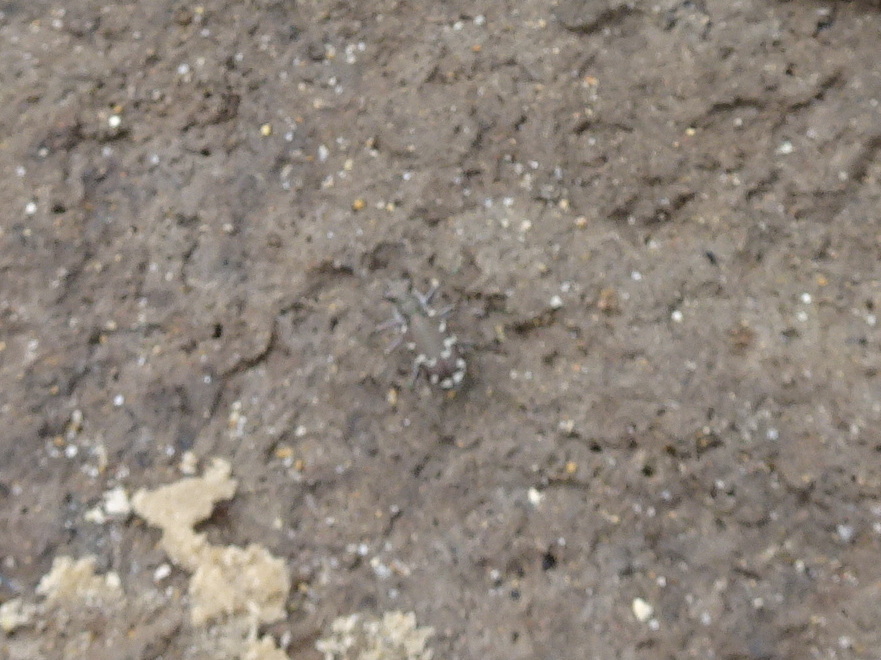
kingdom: Animalia
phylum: Arthropoda
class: Insecta
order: Coleoptera
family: Carabidae
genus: Cicindela
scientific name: Cicindela repanda
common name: Bronzed tiger beetle
